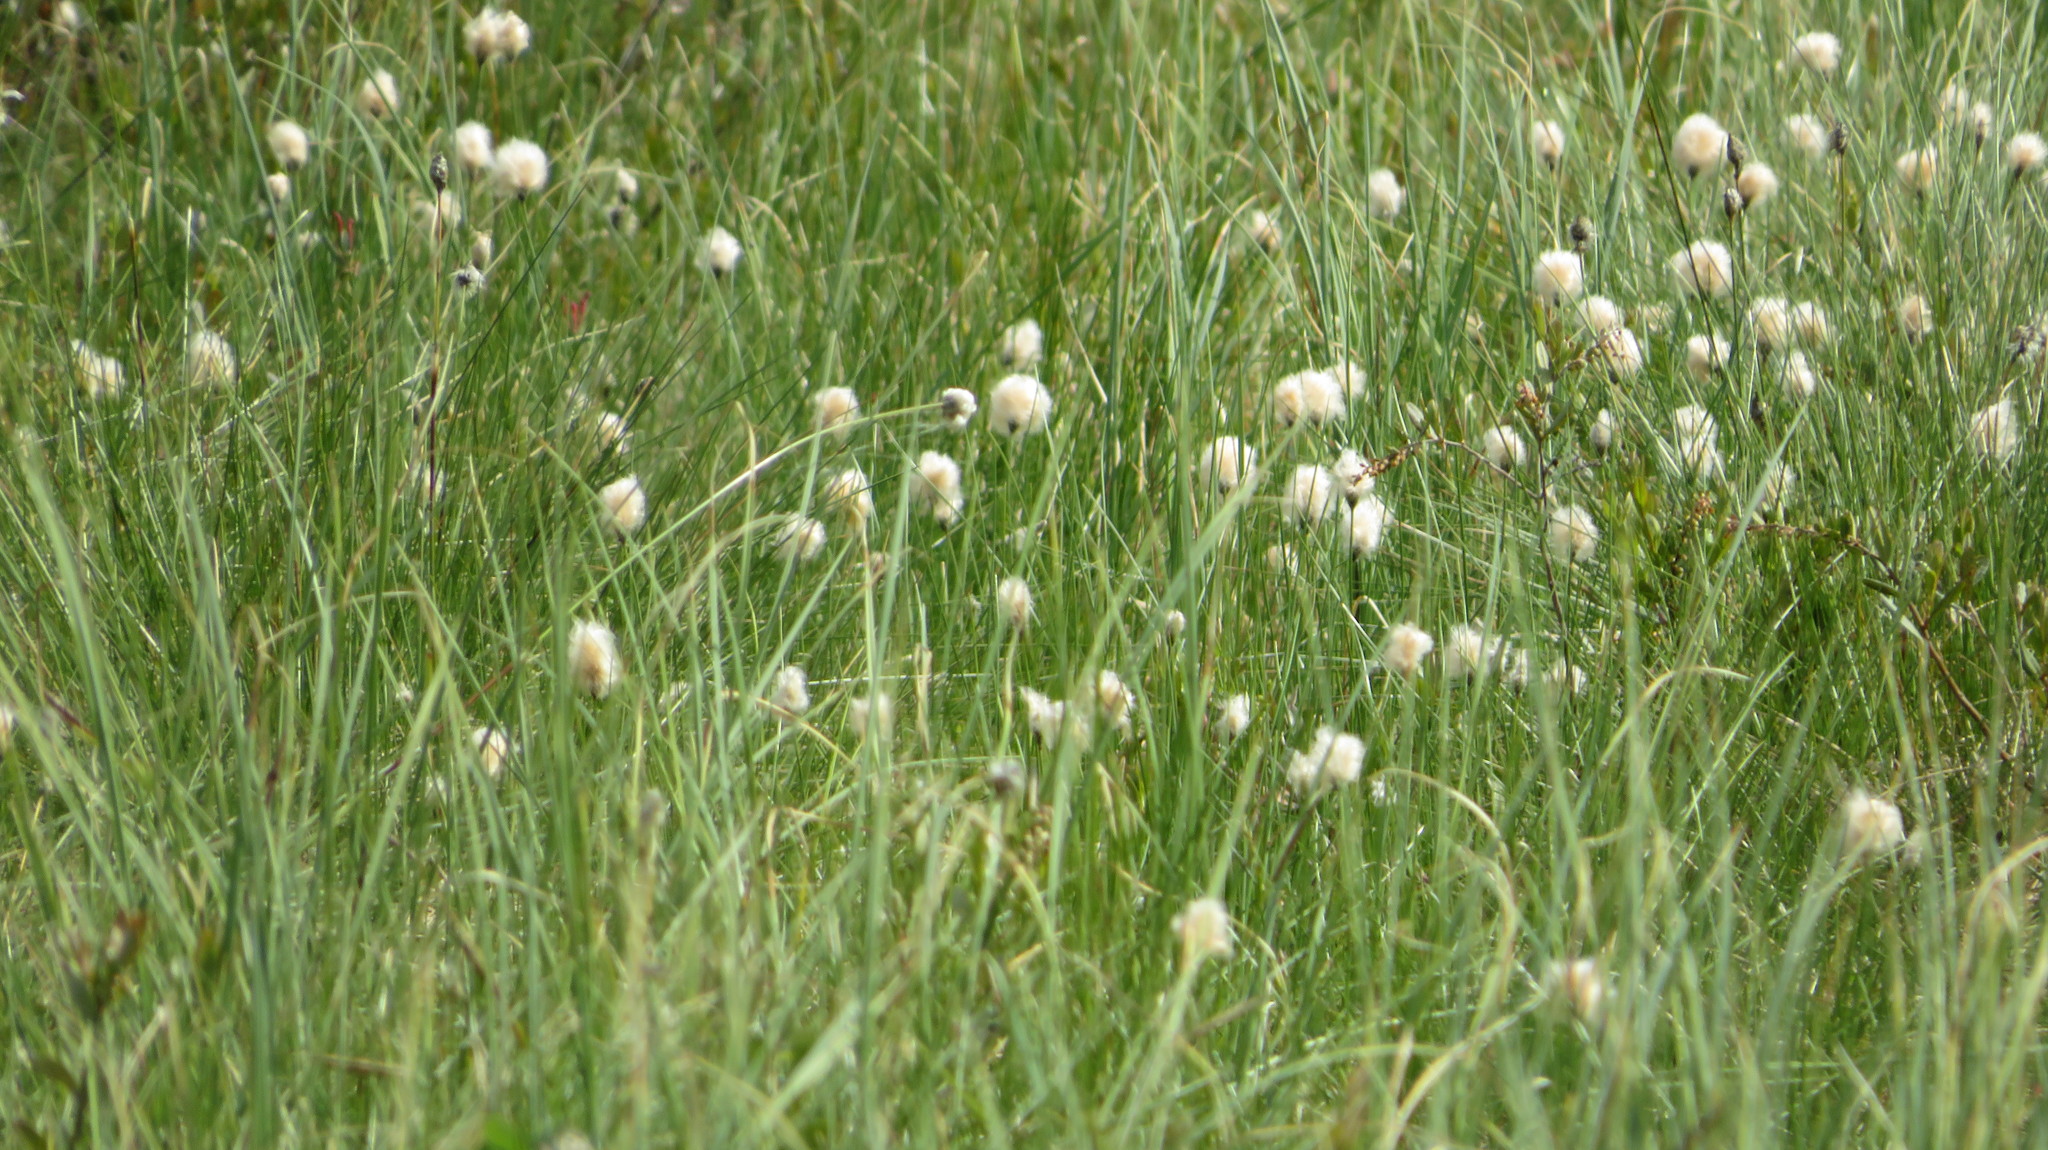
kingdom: Plantae
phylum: Tracheophyta
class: Liliopsida
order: Poales
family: Cyperaceae
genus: Eriophorum
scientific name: Eriophorum vaginatum
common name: Hare's-tail cottongrass
